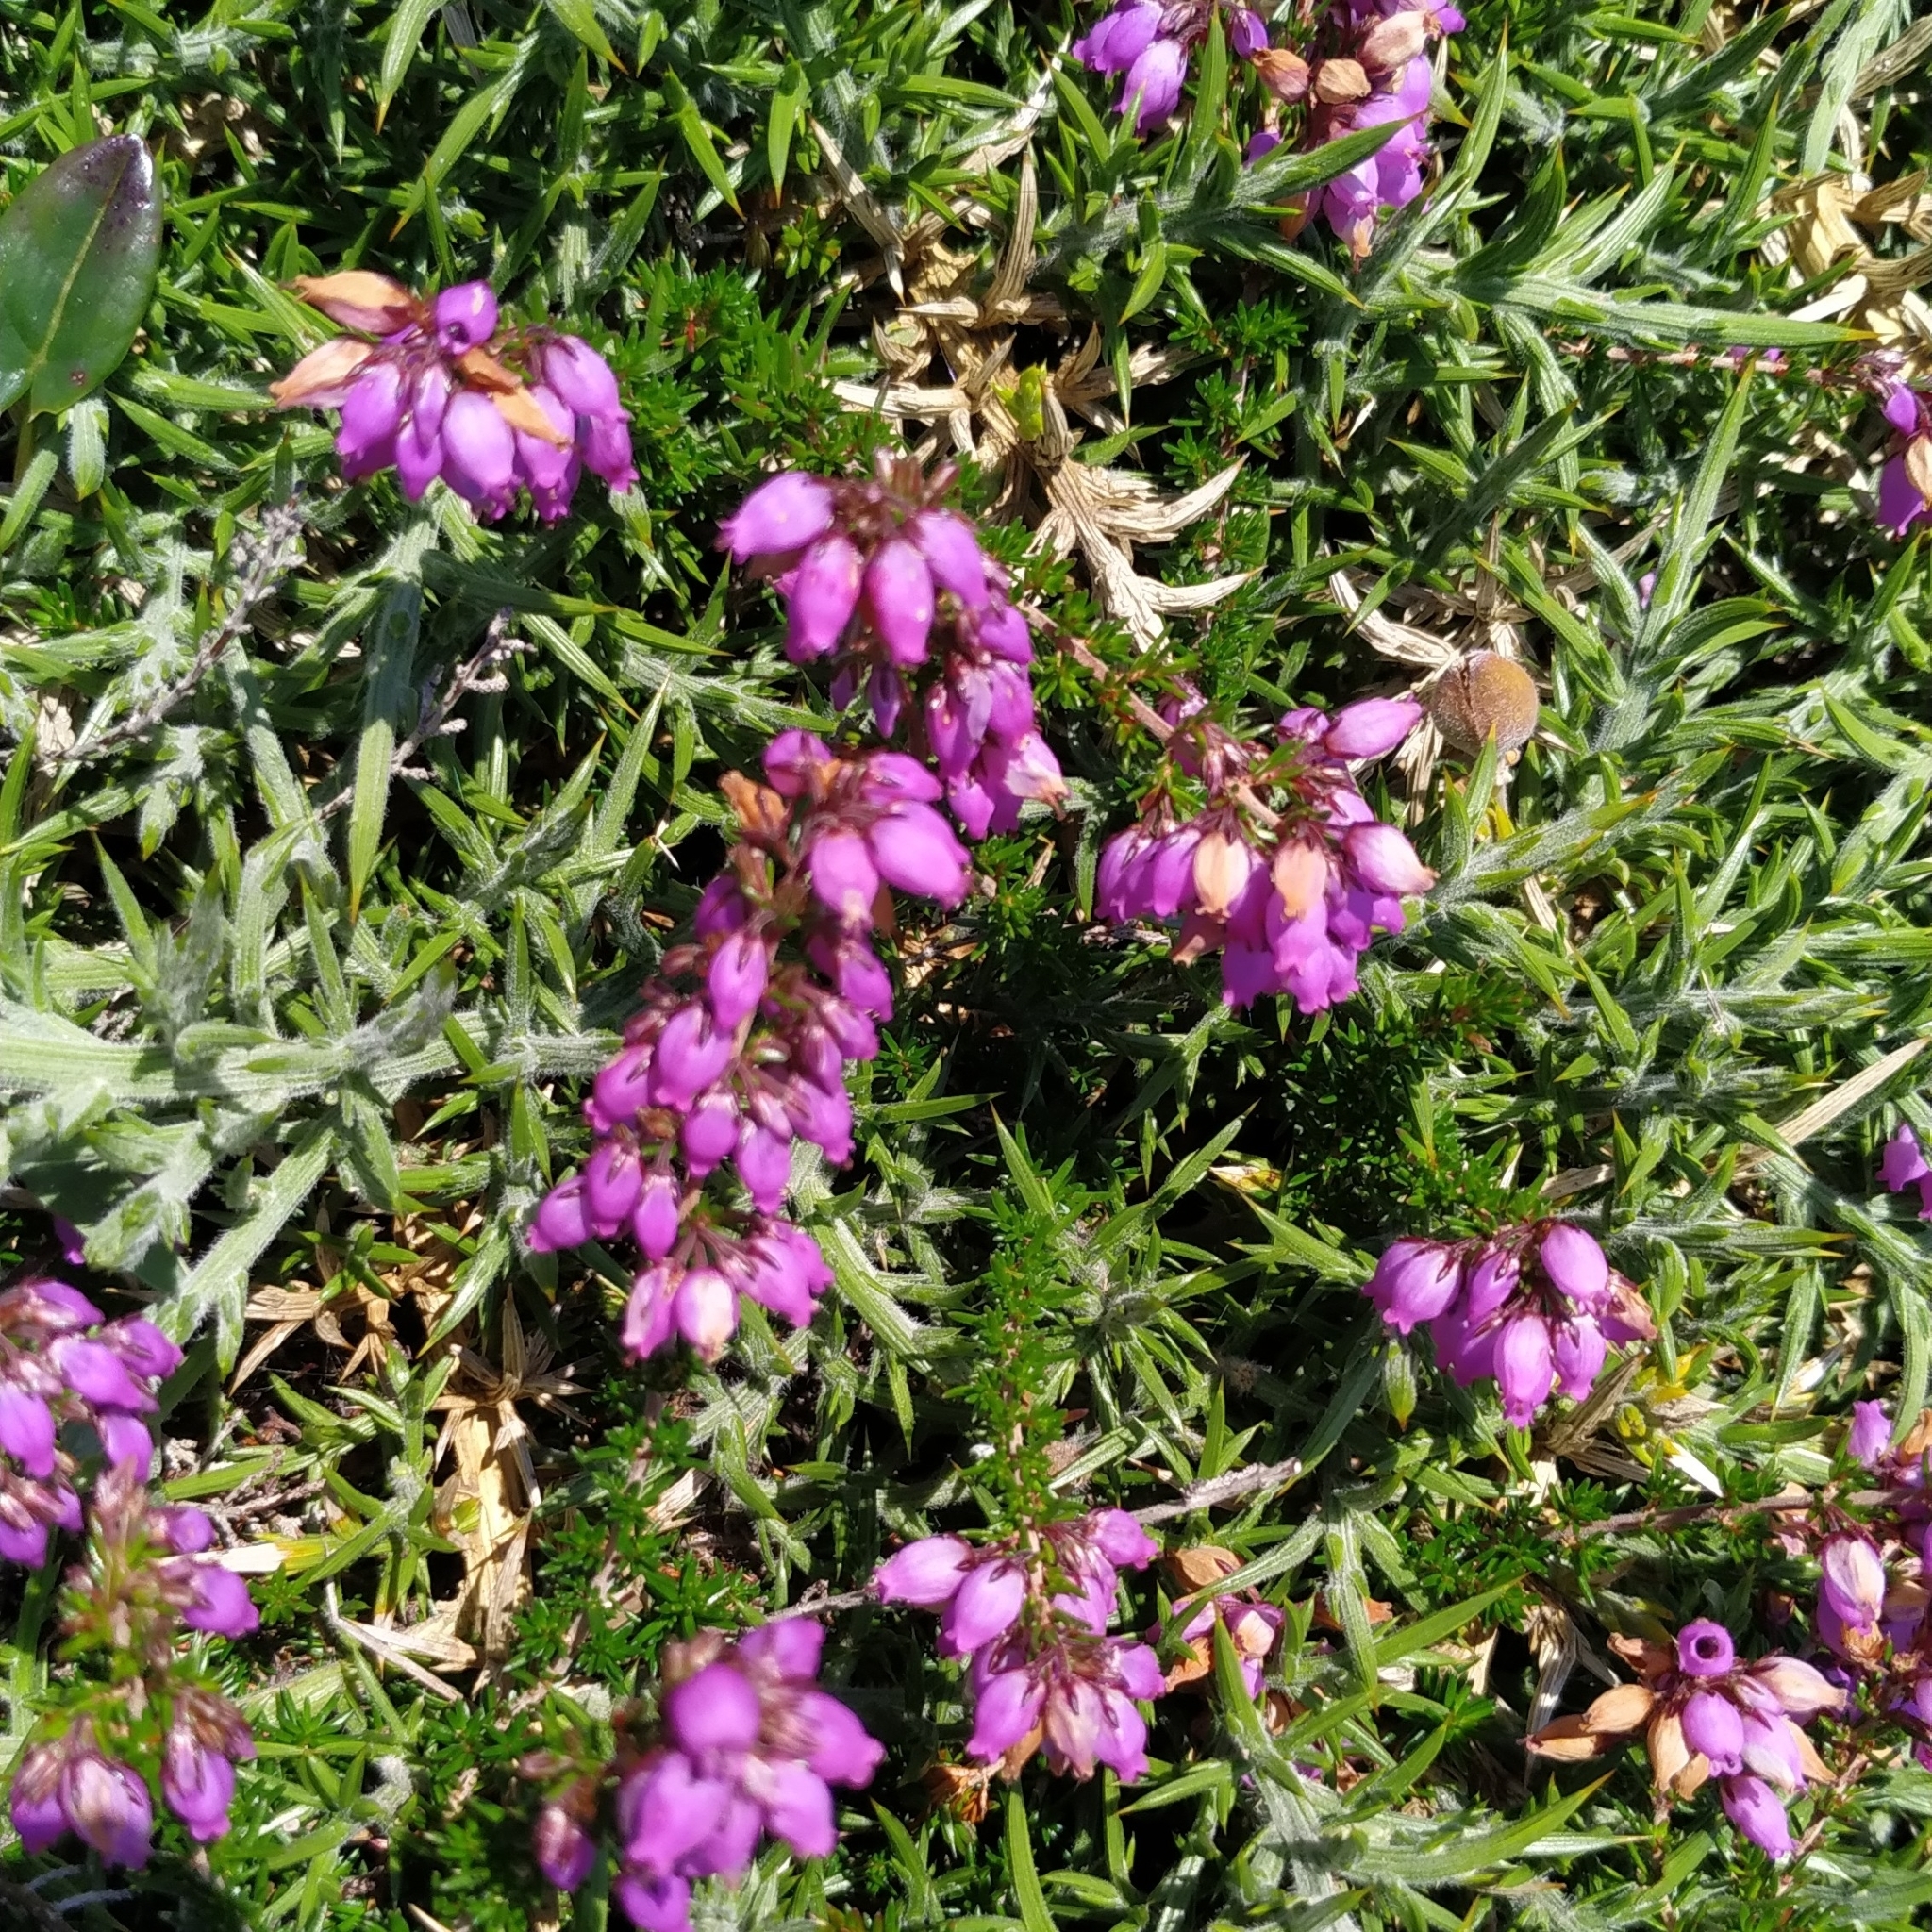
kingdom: Plantae
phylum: Tracheophyta
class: Magnoliopsida
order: Ericales
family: Ericaceae
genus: Erica
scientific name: Erica cinerea
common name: Bell heather
